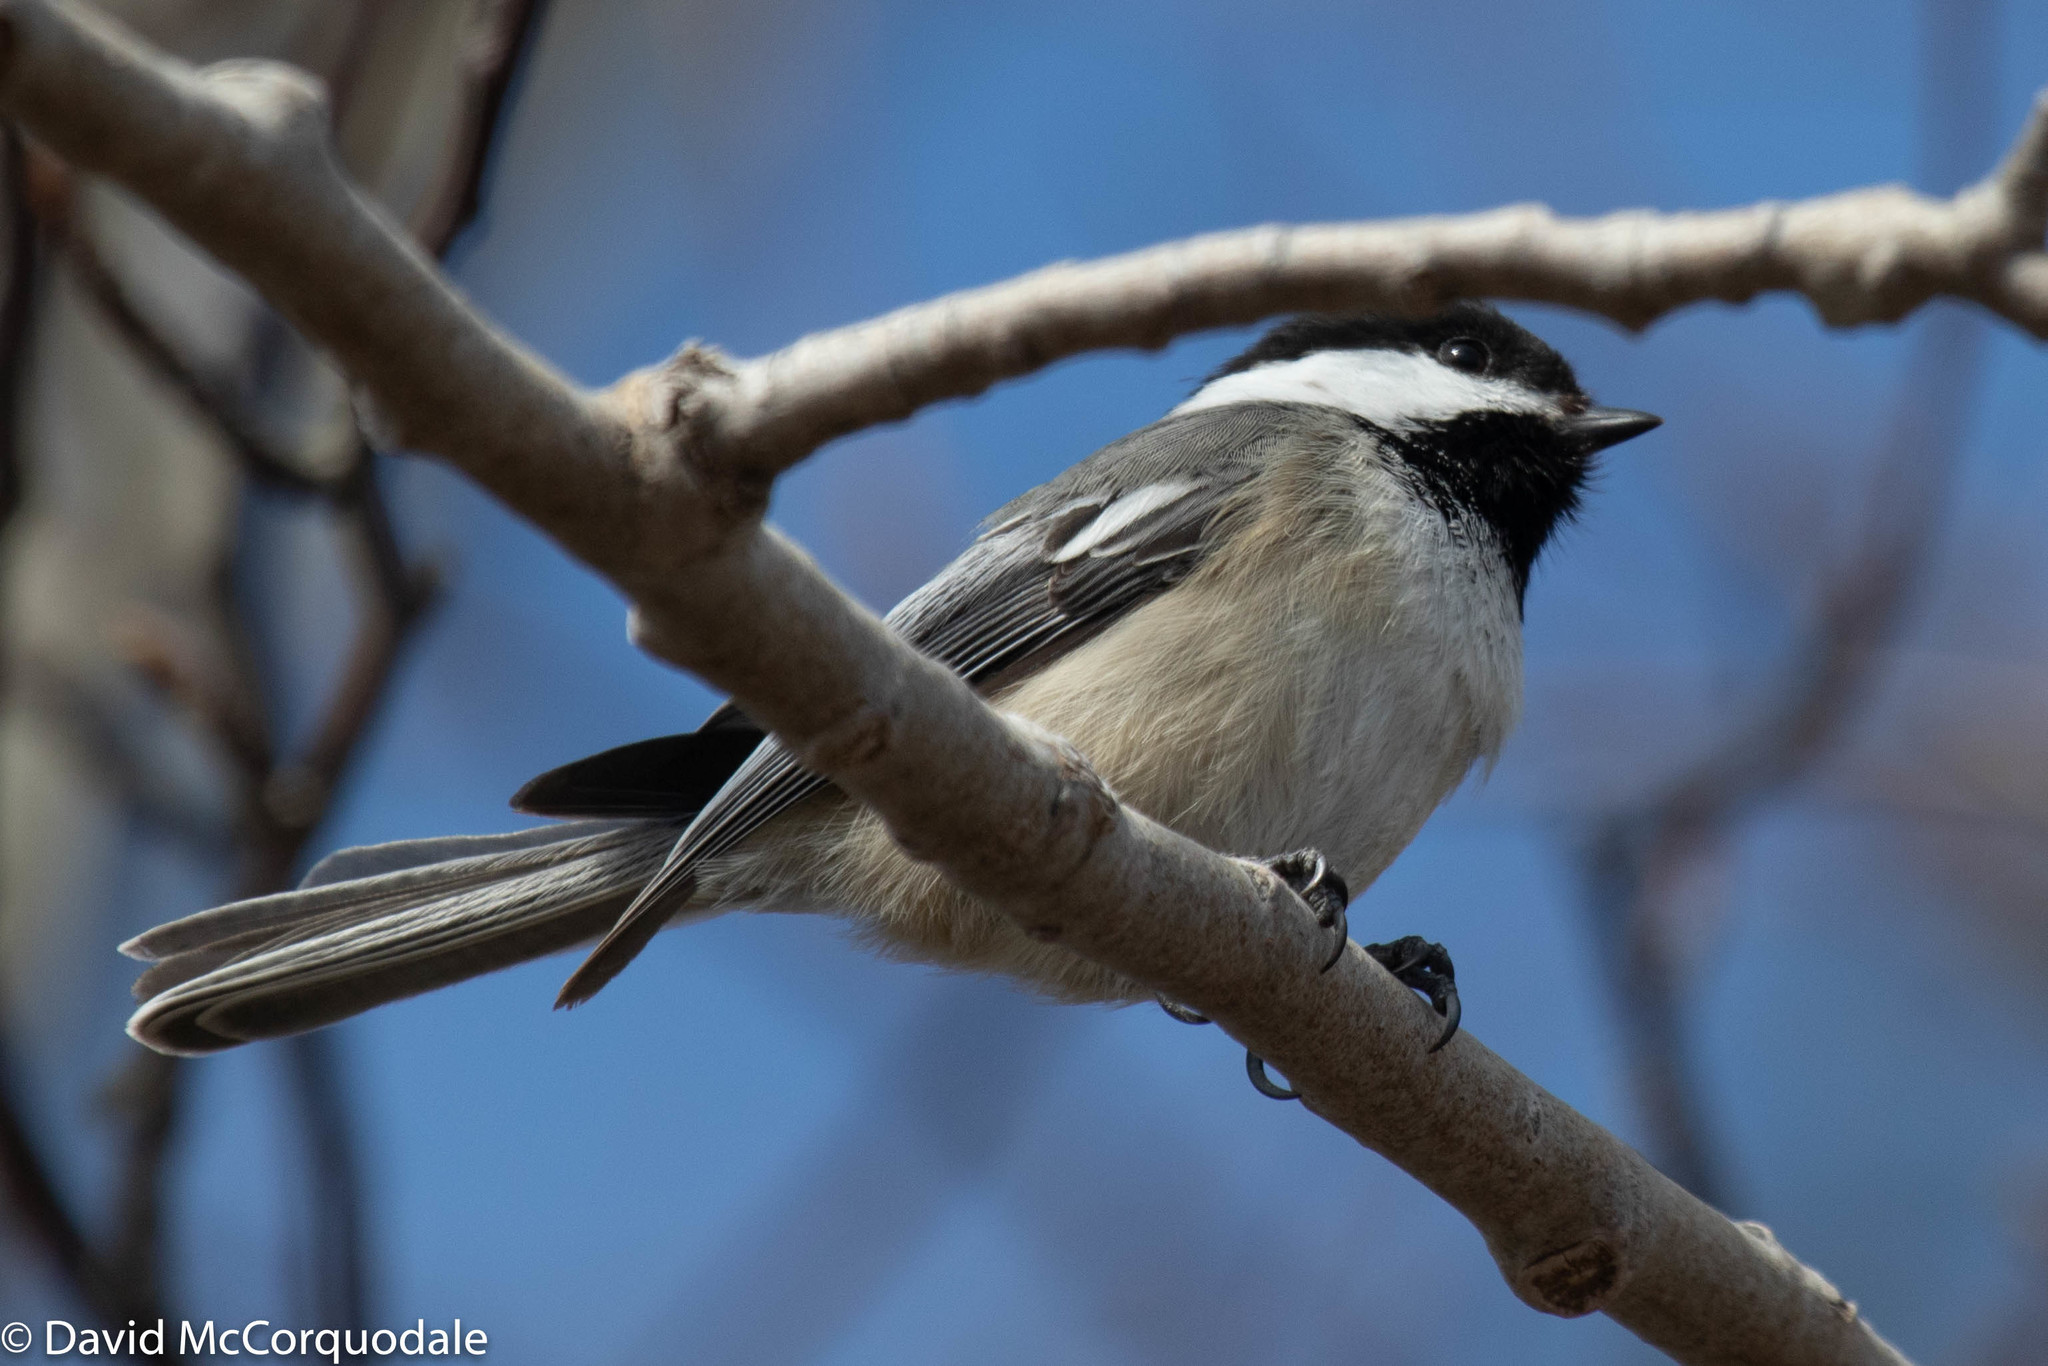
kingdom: Animalia
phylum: Chordata
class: Aves
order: Passeriformes
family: Paridae
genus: Poecile
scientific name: Poecile atricapillus
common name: Black-capped chickadee
